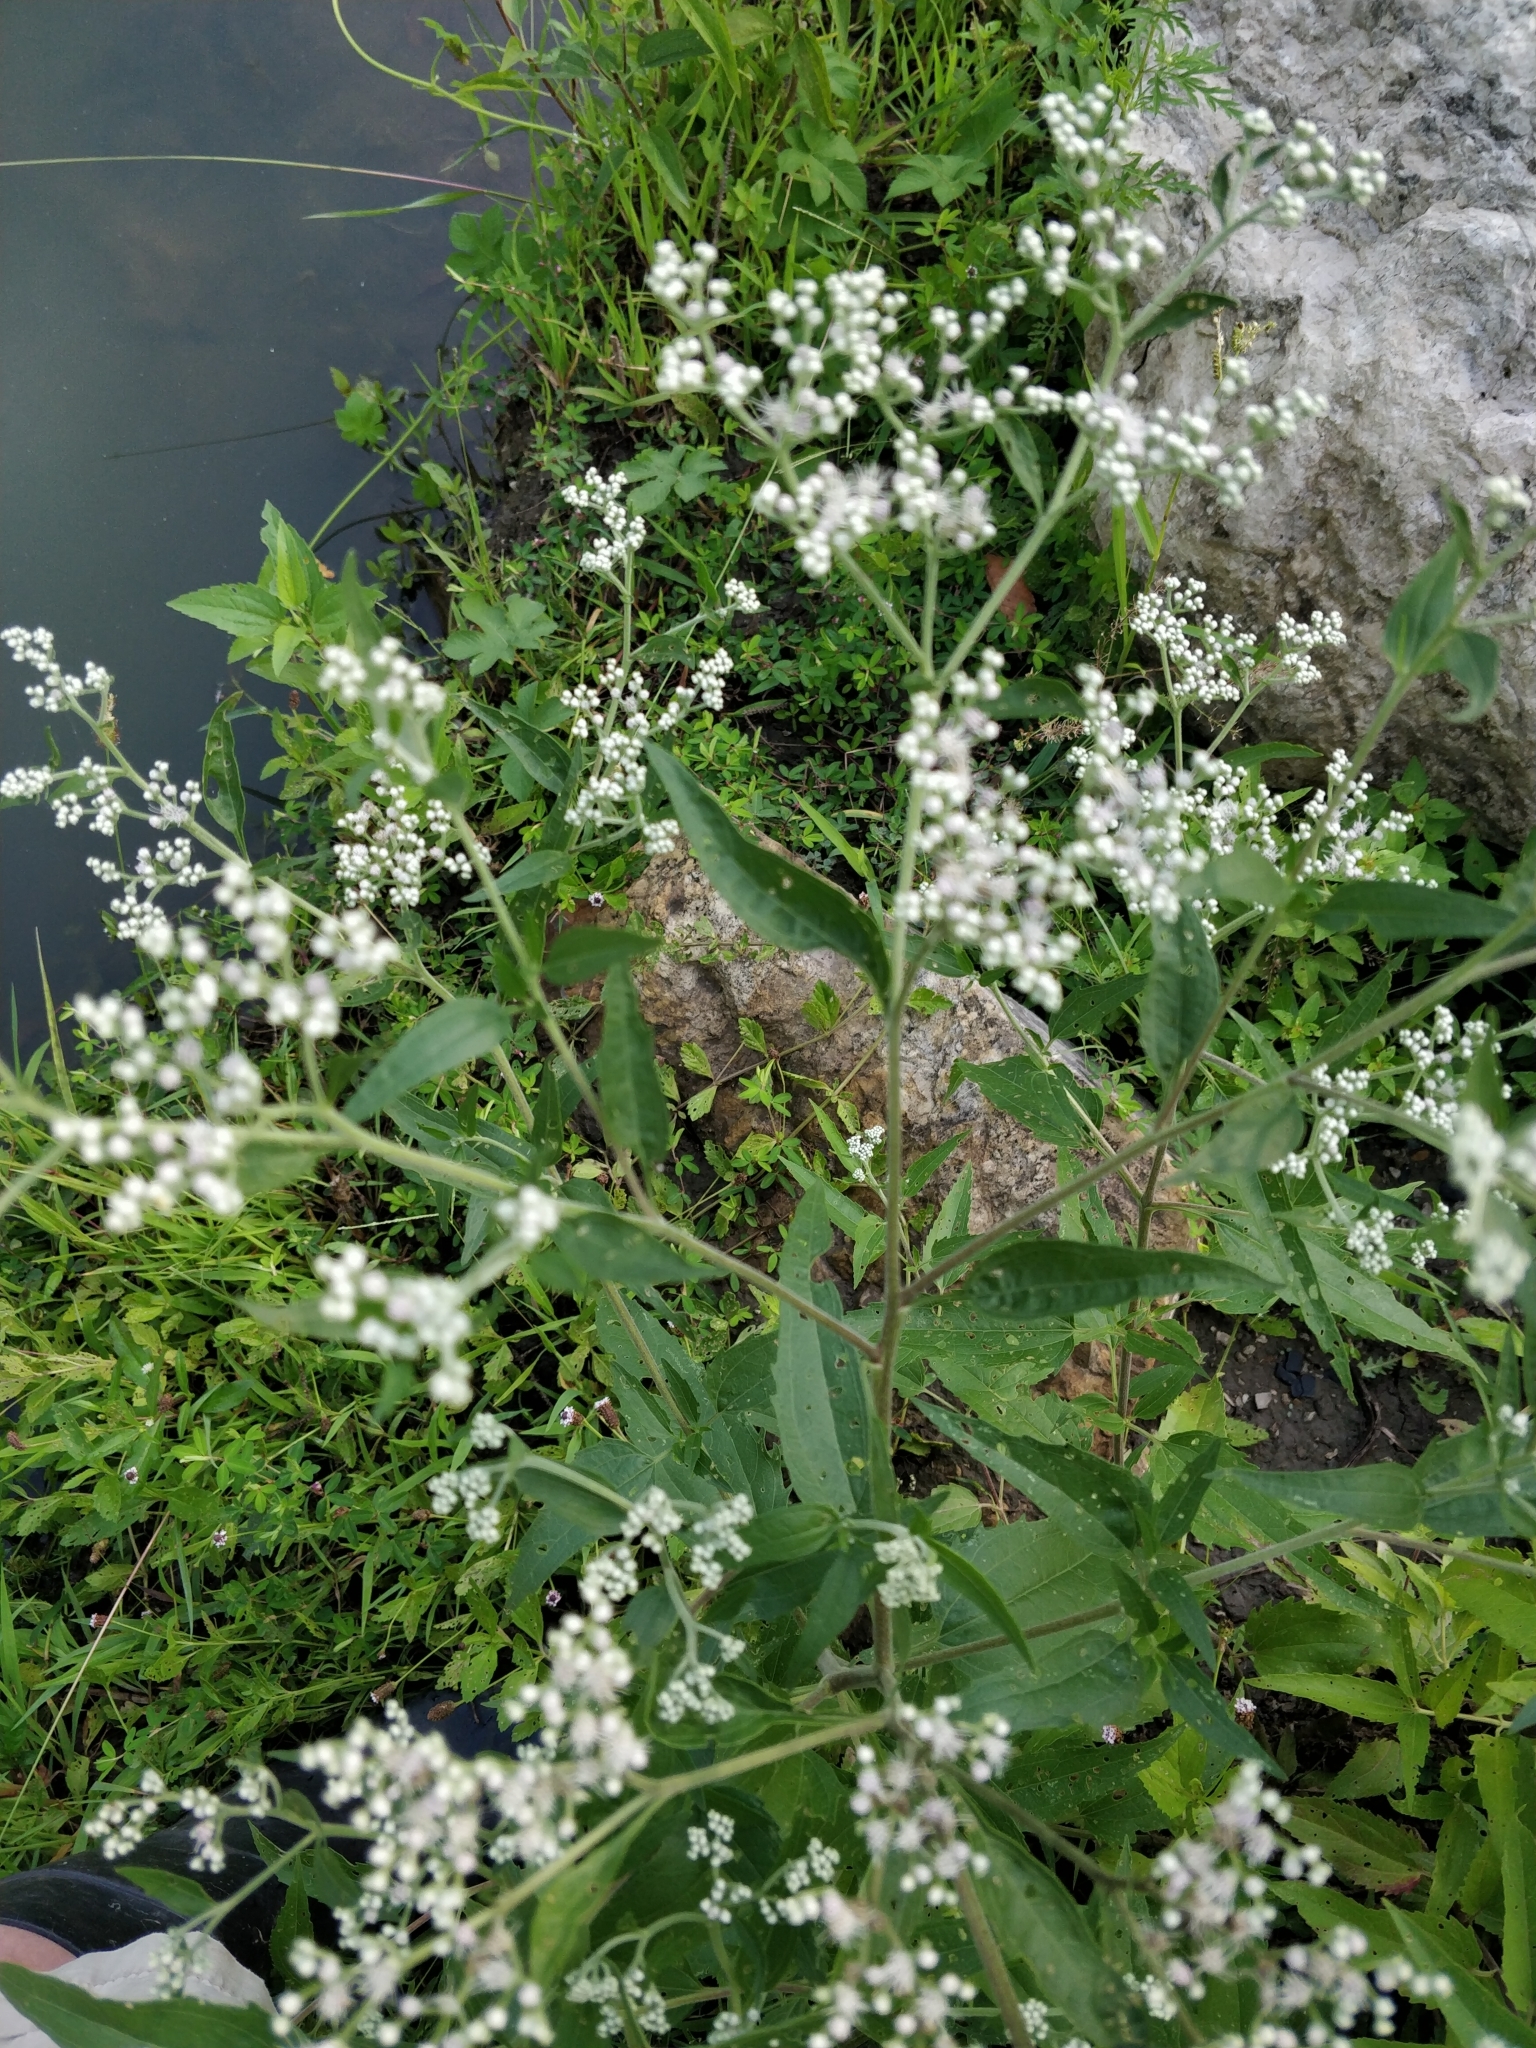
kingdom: Plantae
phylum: Tracheophyta
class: Magnoliopsida
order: Asterales
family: Asteraceae
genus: Eupatorium
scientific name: Eupatorium serotinum
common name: Late boneset
